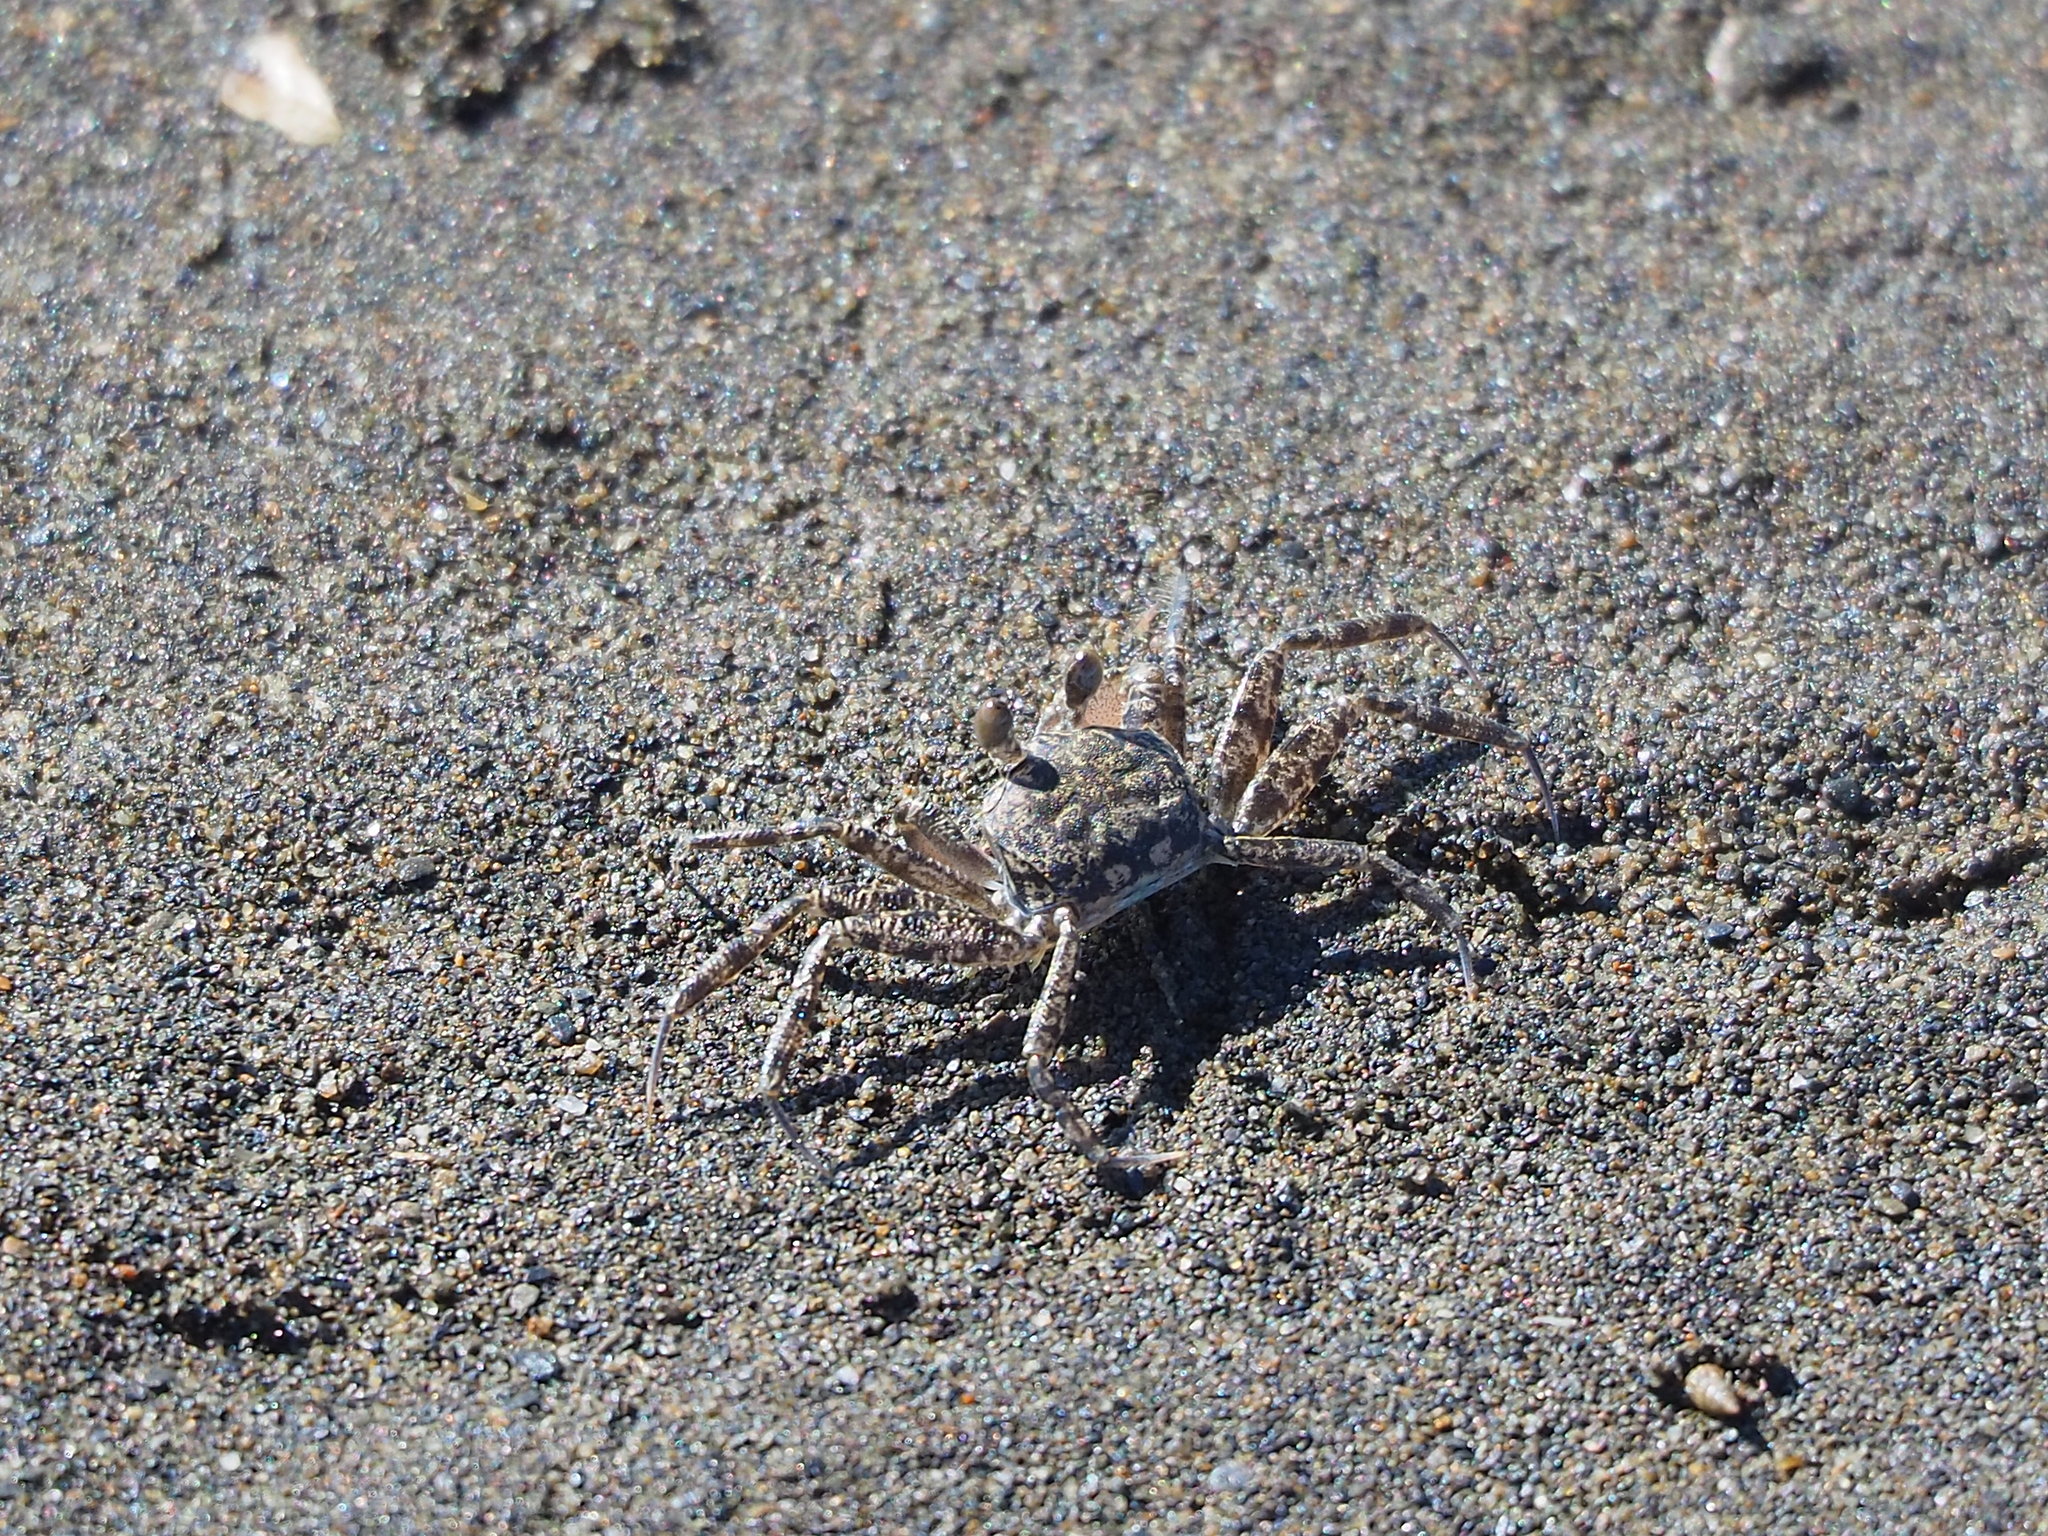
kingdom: Animalia
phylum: Arthropoda
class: Malacostraca
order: Decapoda
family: Ocypodidae
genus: Ocypode
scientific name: Ocypode ceratophthalmus
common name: Indo-pacific ghost crab
